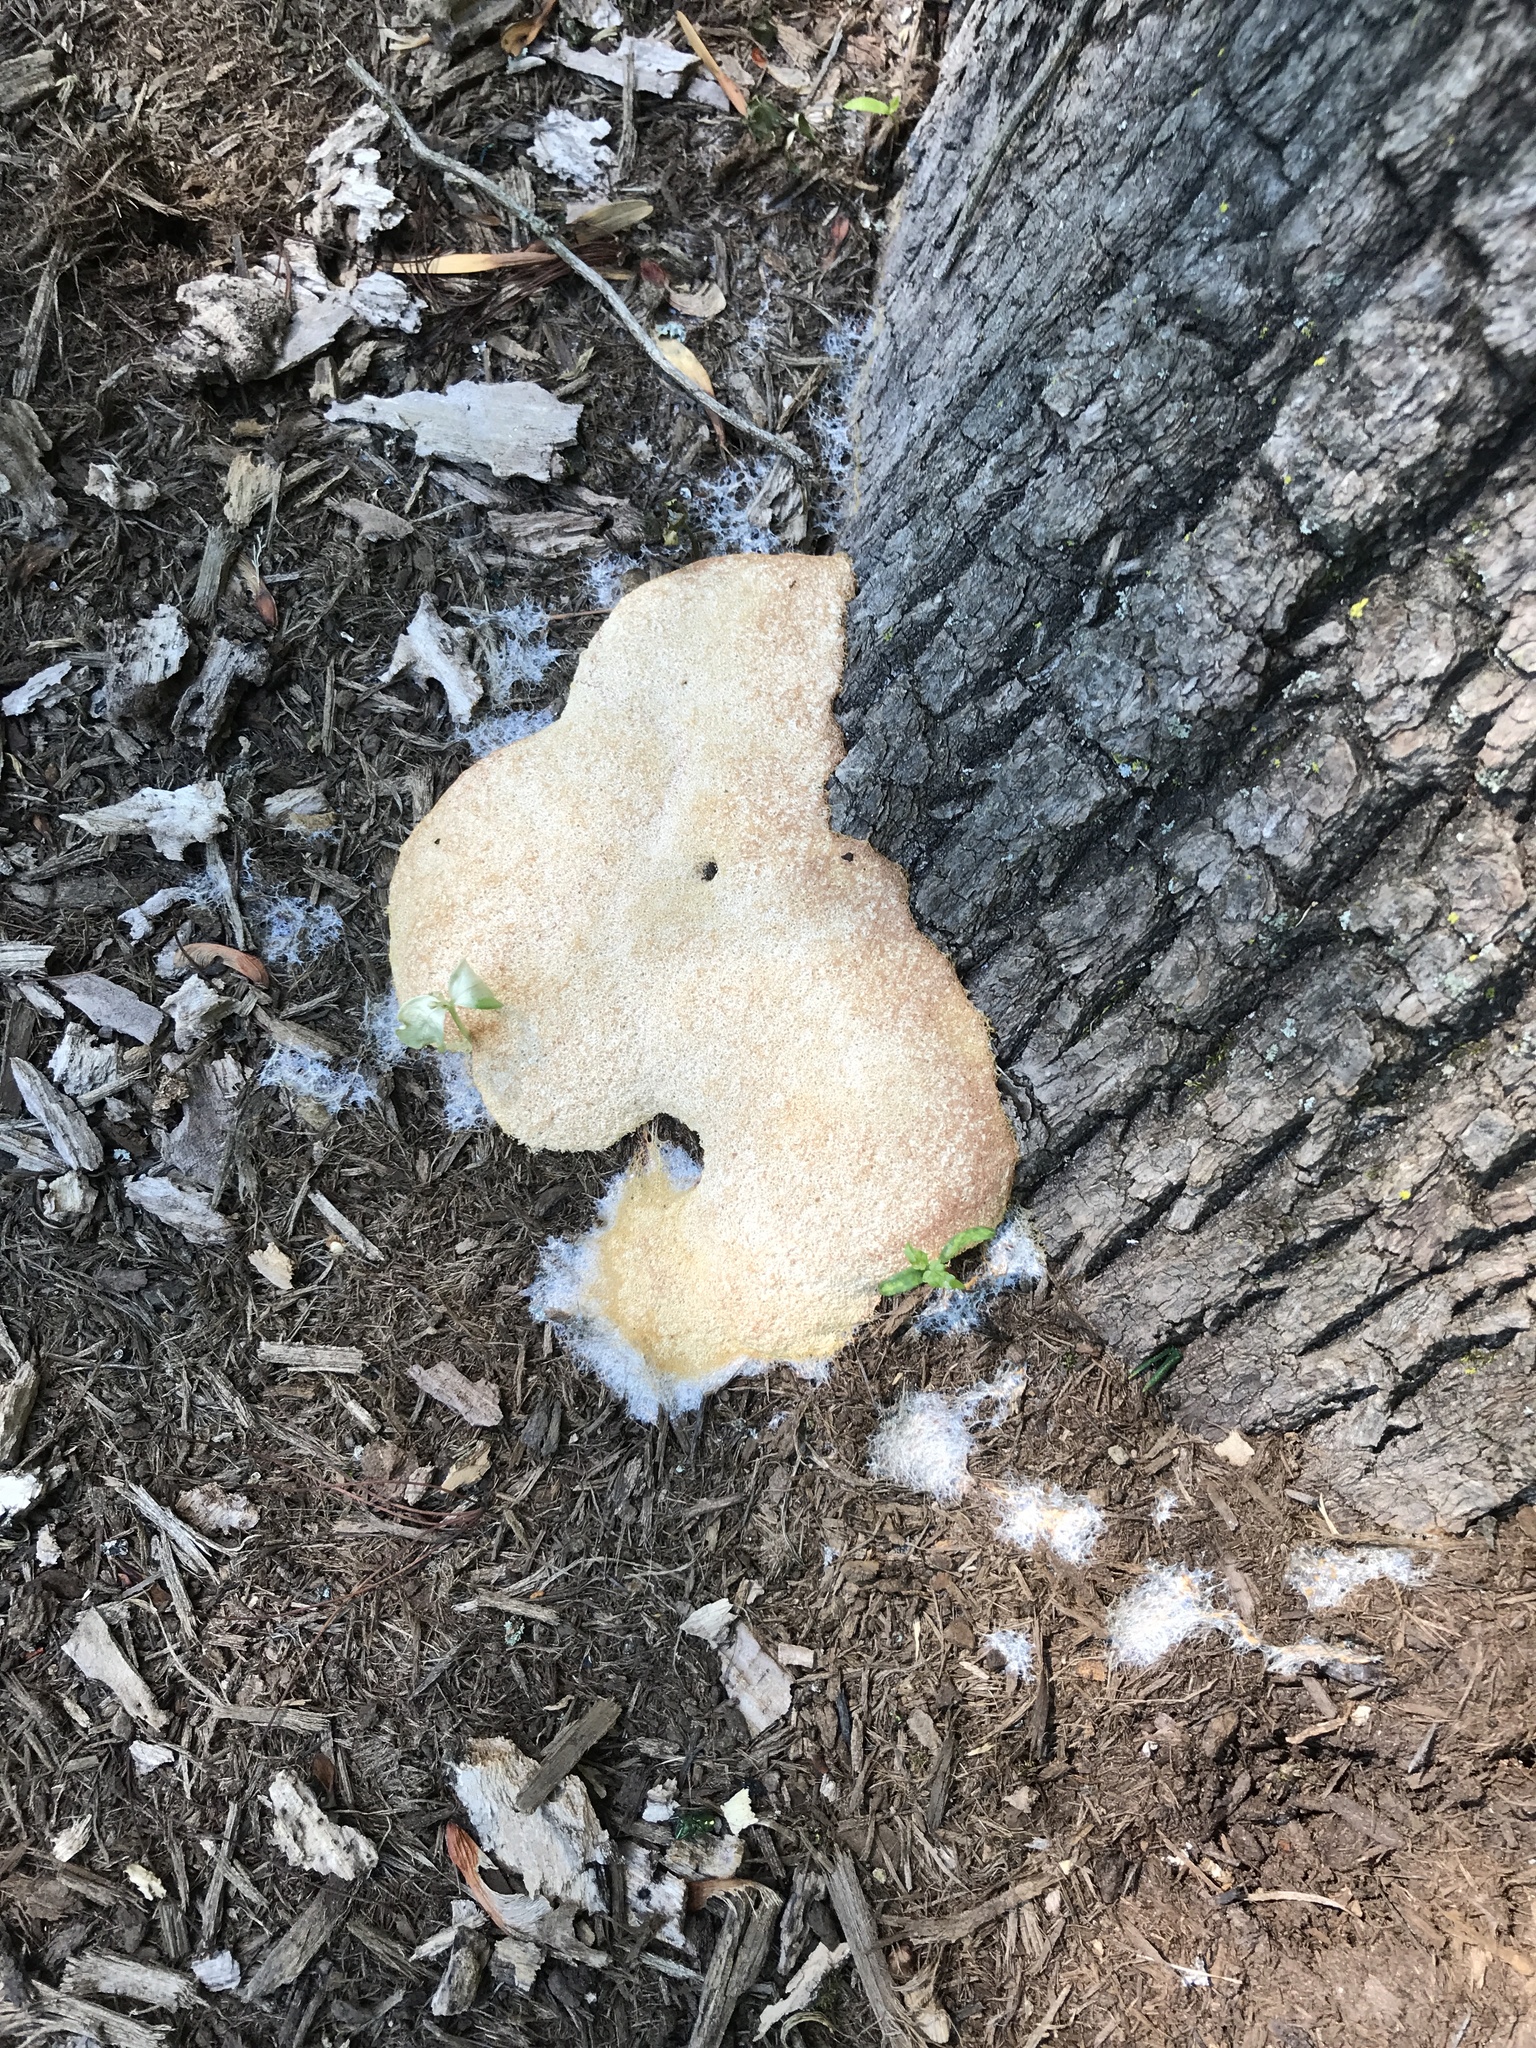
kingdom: Protozoa
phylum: Mycetozoa
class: Myxomycetes
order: Physarales
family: Physaraceae
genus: Fuligo
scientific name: Fuligo septica
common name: Dog vomit slime mold
